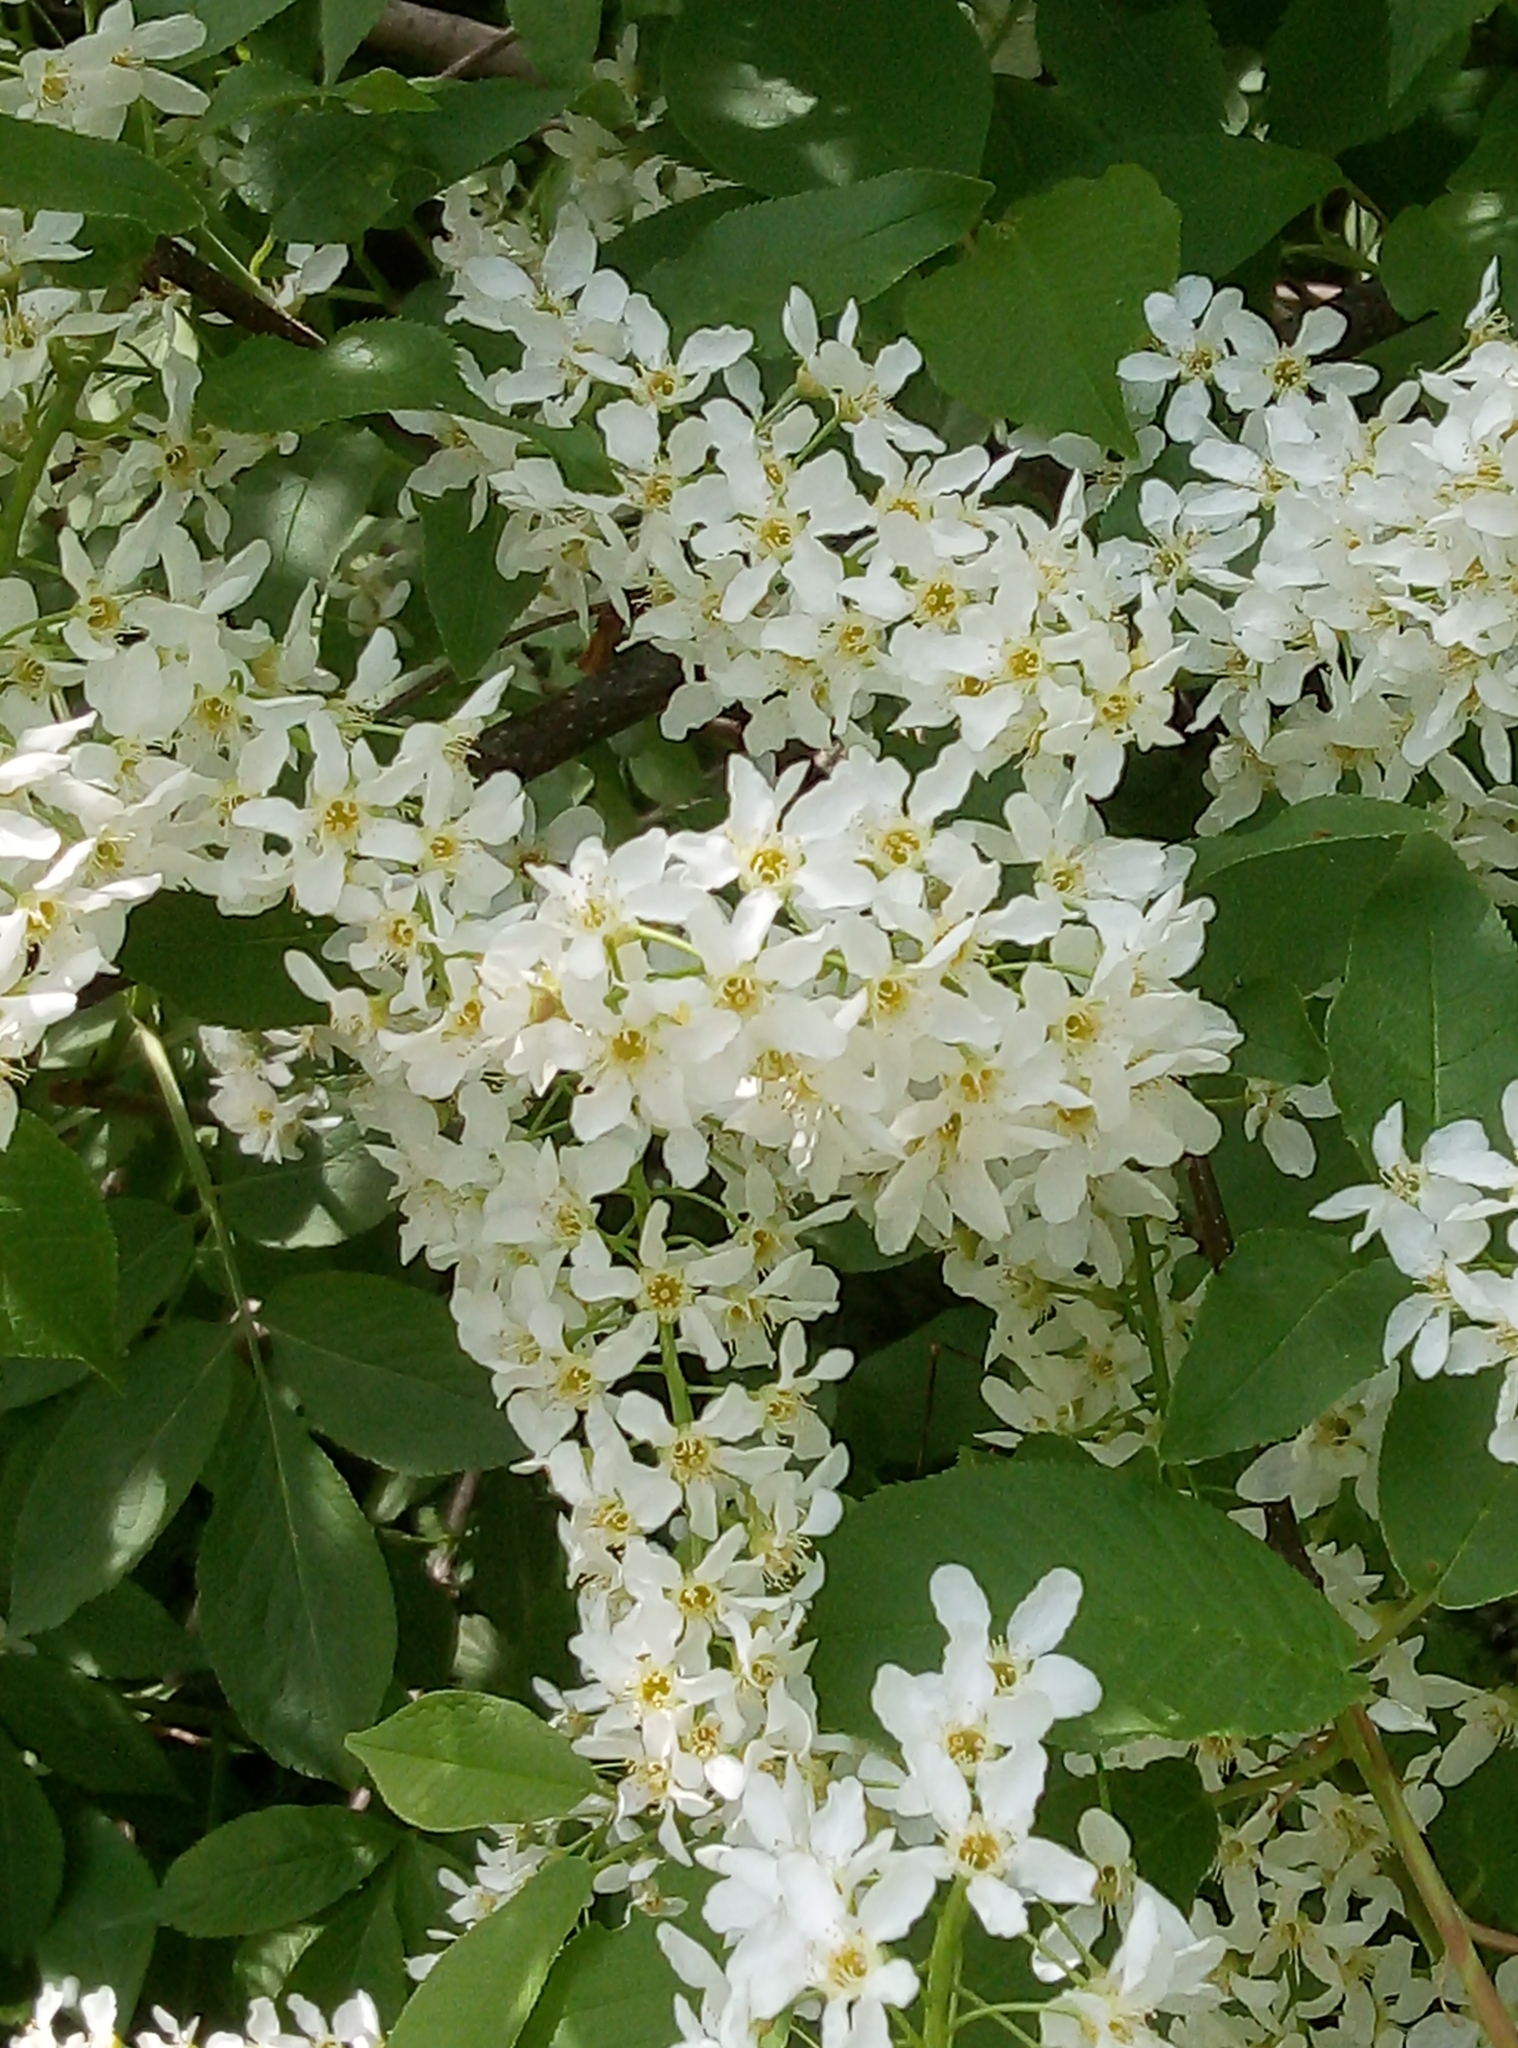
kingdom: Plantae
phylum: Tracheophyta
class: Magnoliopsida
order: Rosales
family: Rosaceae
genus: Prunus
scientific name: Prunus padus
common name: Bird cherry
